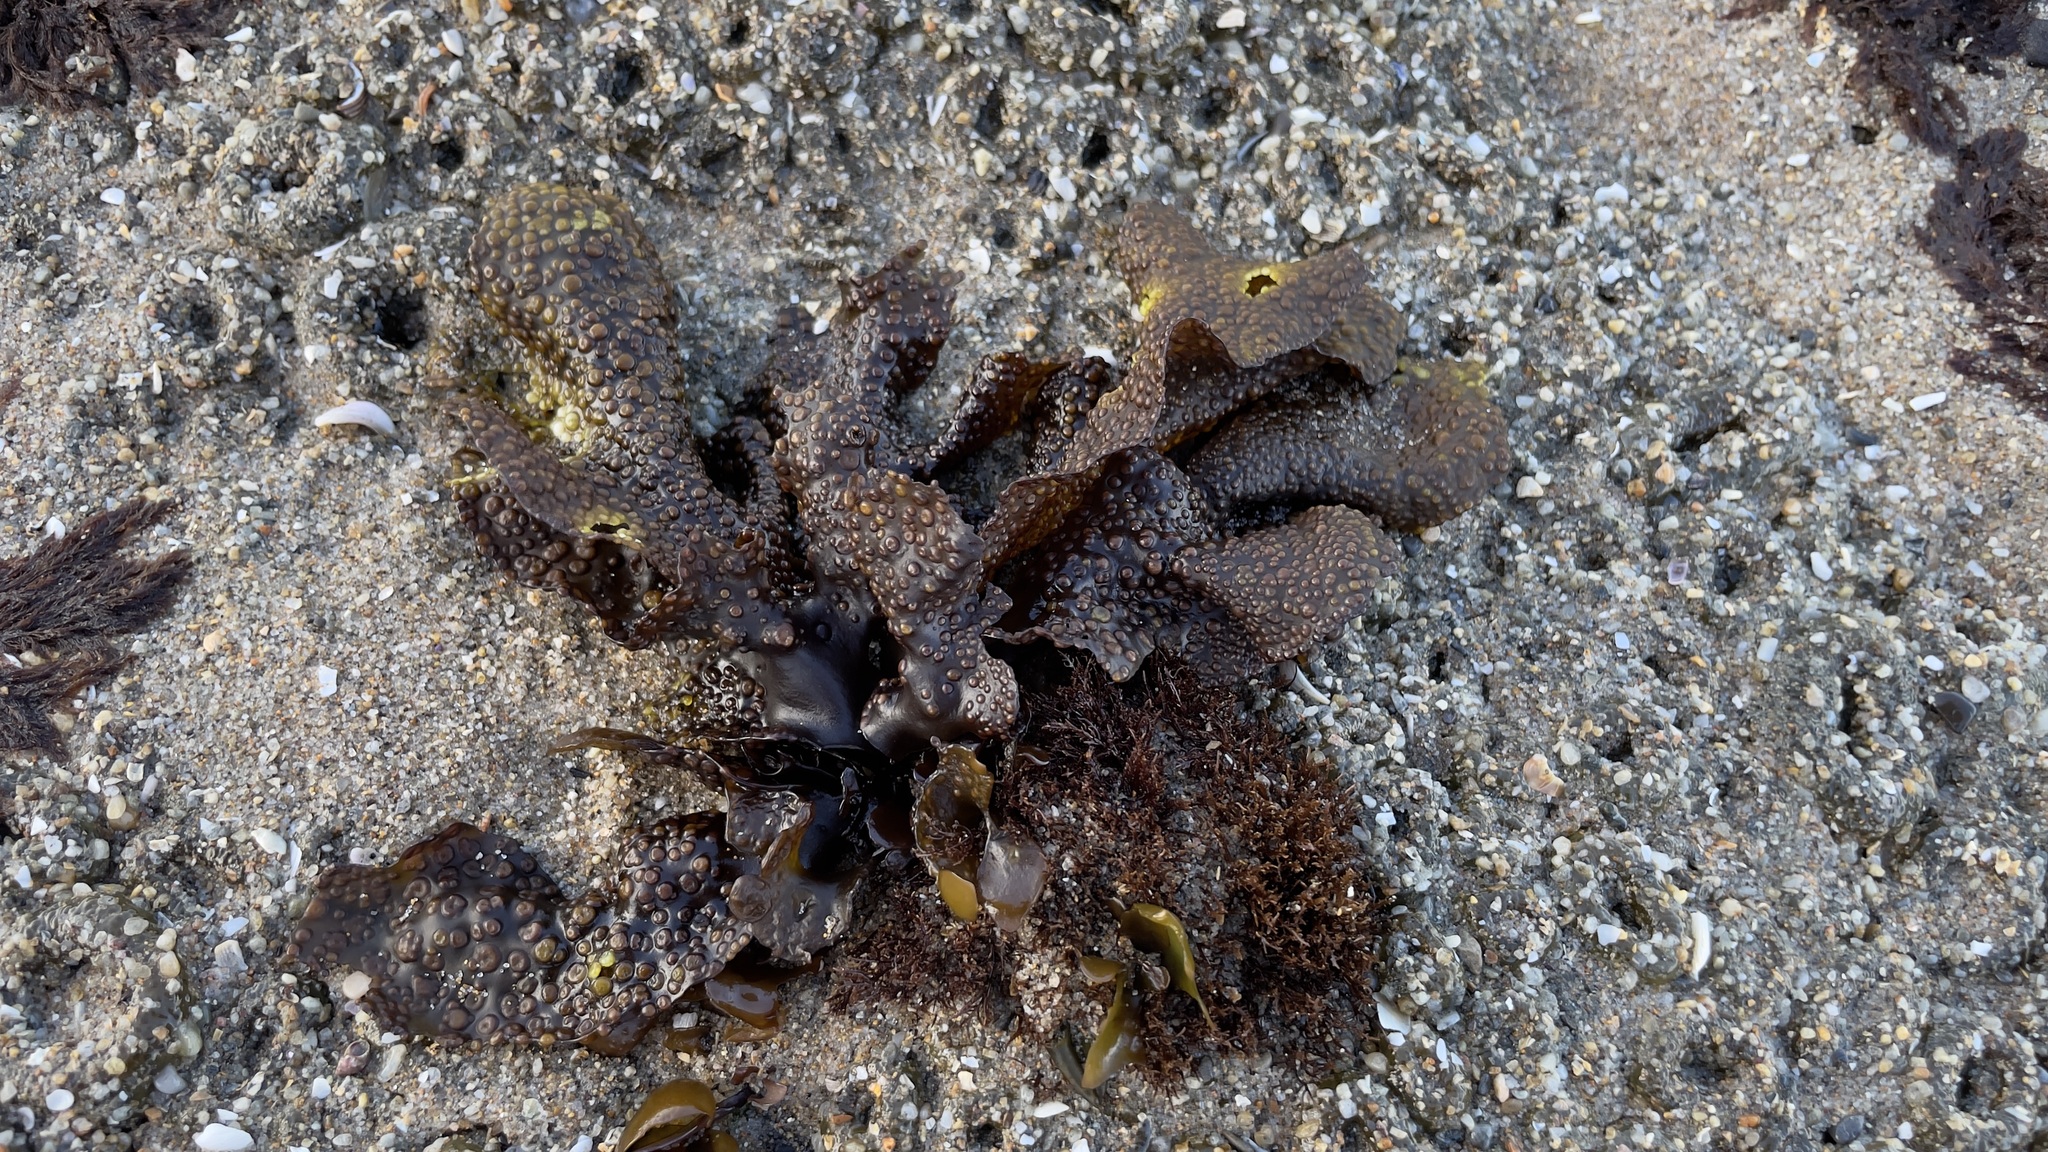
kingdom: Plantae
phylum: Rhodophyta
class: Florideophyceae
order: Gigartinales
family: Phyllophoraceae
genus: Mastocarpus
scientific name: Mastocarpus papillatus
